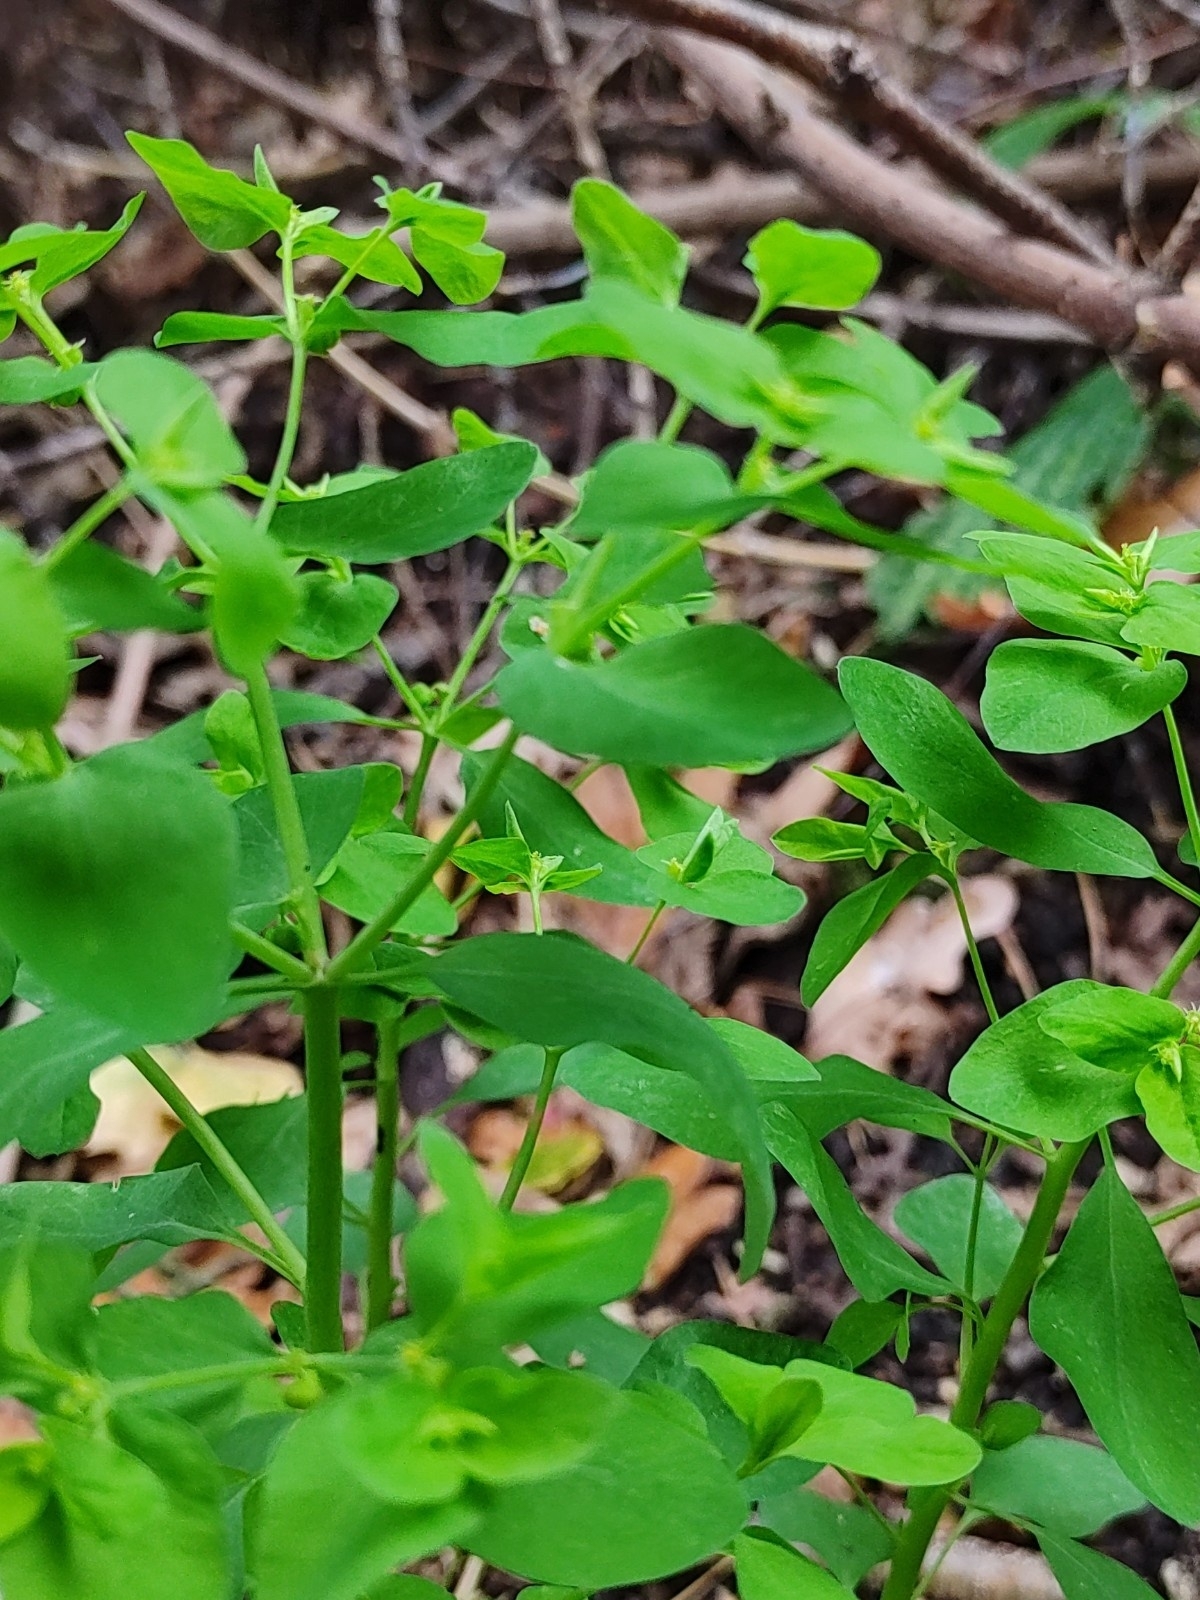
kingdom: Plantae
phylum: Tracheophyta
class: Magnoliopsida
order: Malpighiales
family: Euphorbiaceae
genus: Euphorbia
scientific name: Euphorbia peplus
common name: Petty spurge
